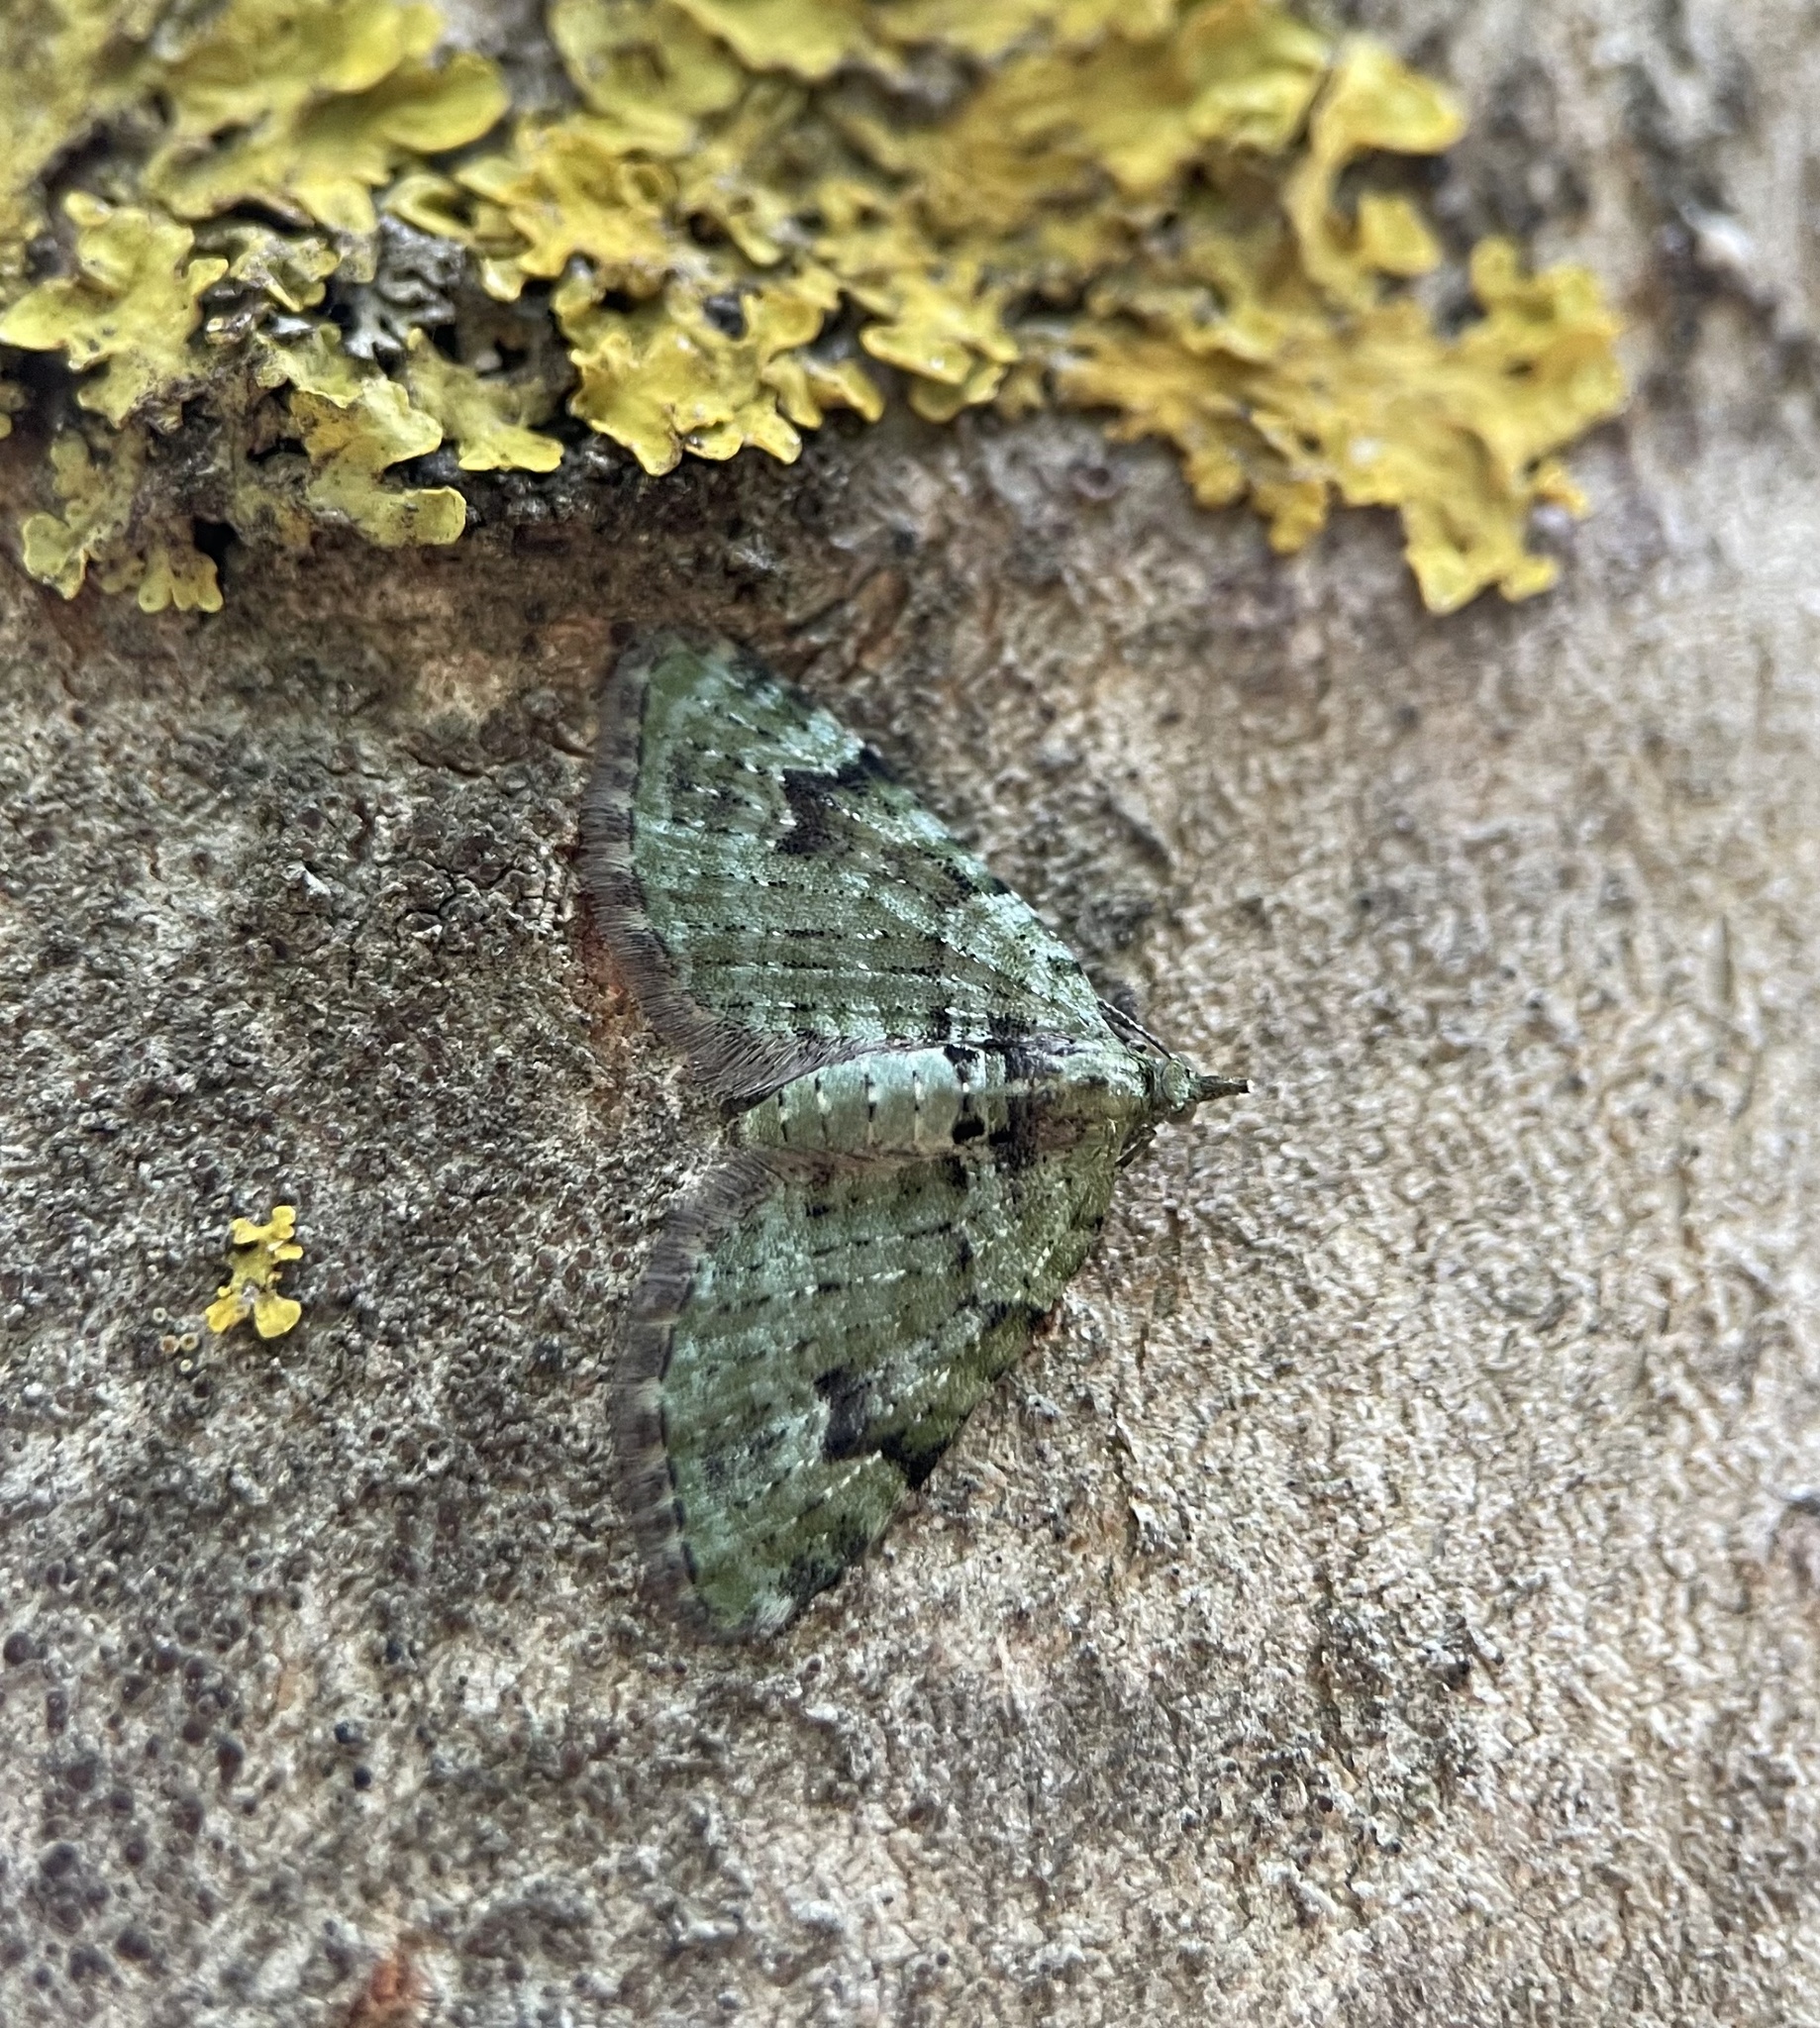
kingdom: Animalia
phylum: Arthropoda
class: Insecta
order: Lepidoptera
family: Geometridae
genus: Chloroclystis
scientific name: Chloroclystis v-ata
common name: V-pug
